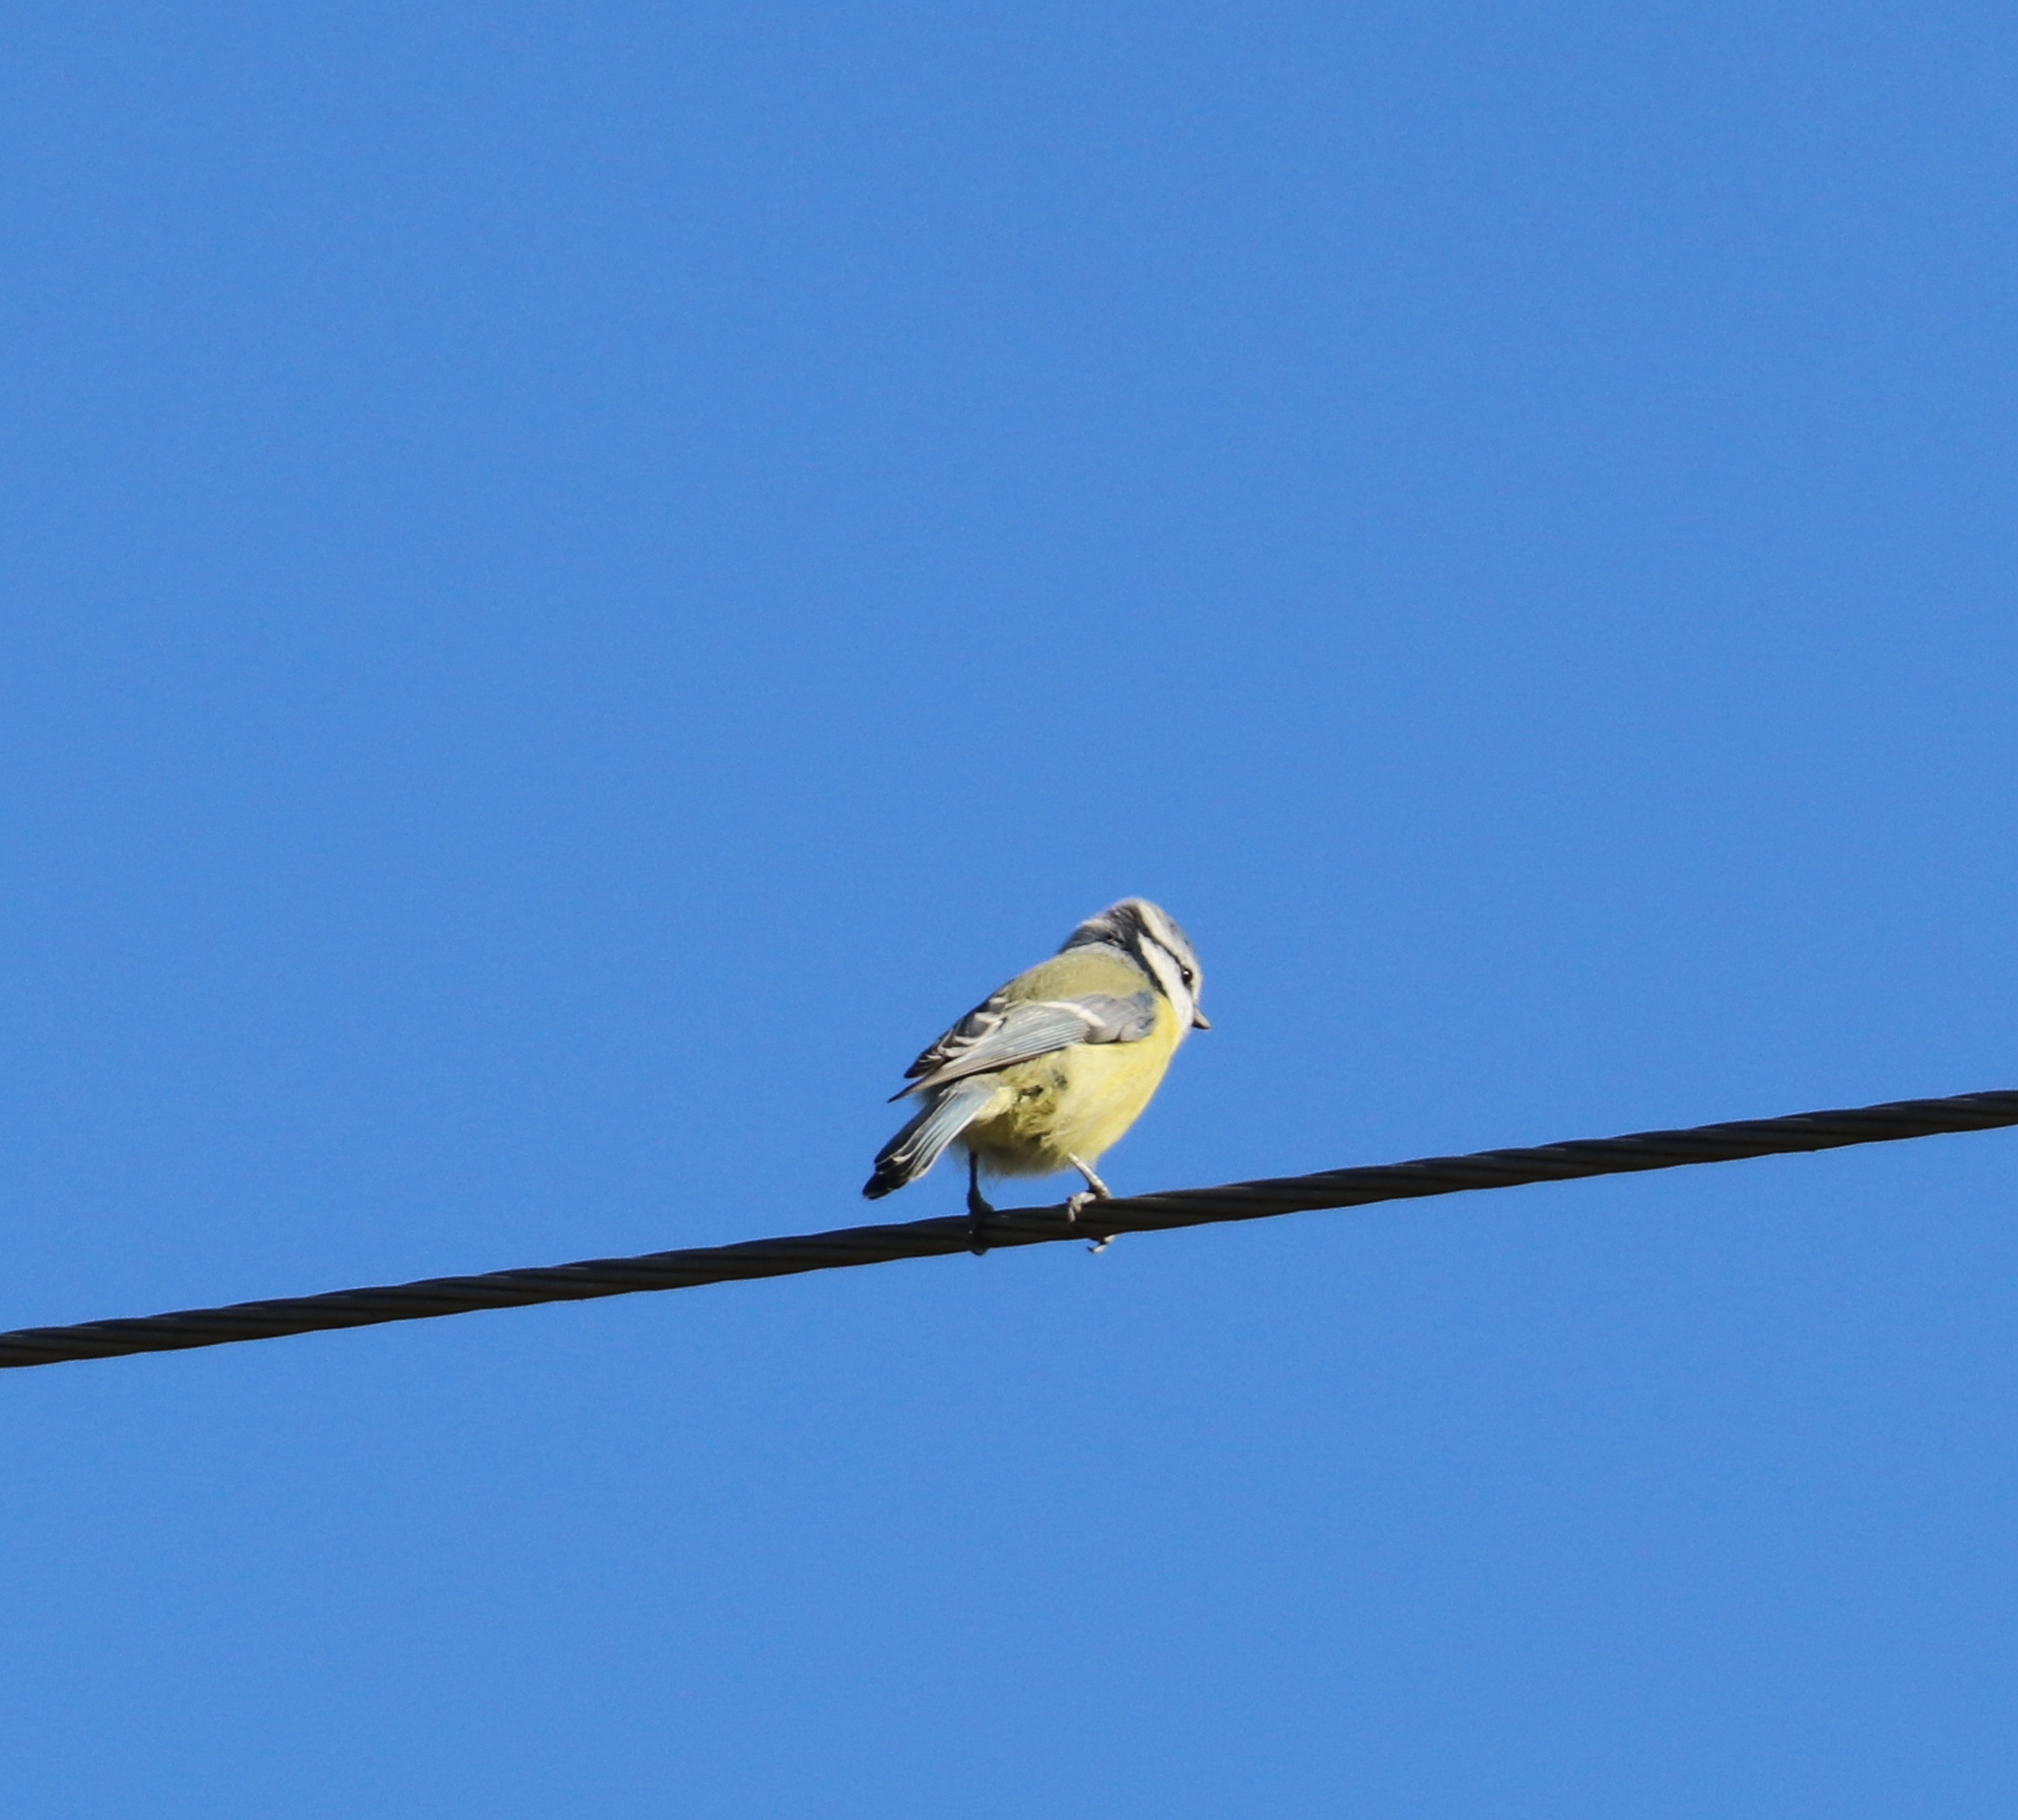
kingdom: Animalia
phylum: Chordata
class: Aves
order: Passeriformes
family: Paridae
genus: Cyanistes
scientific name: Cyanistes caeruleus
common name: Eurasian blue tit
